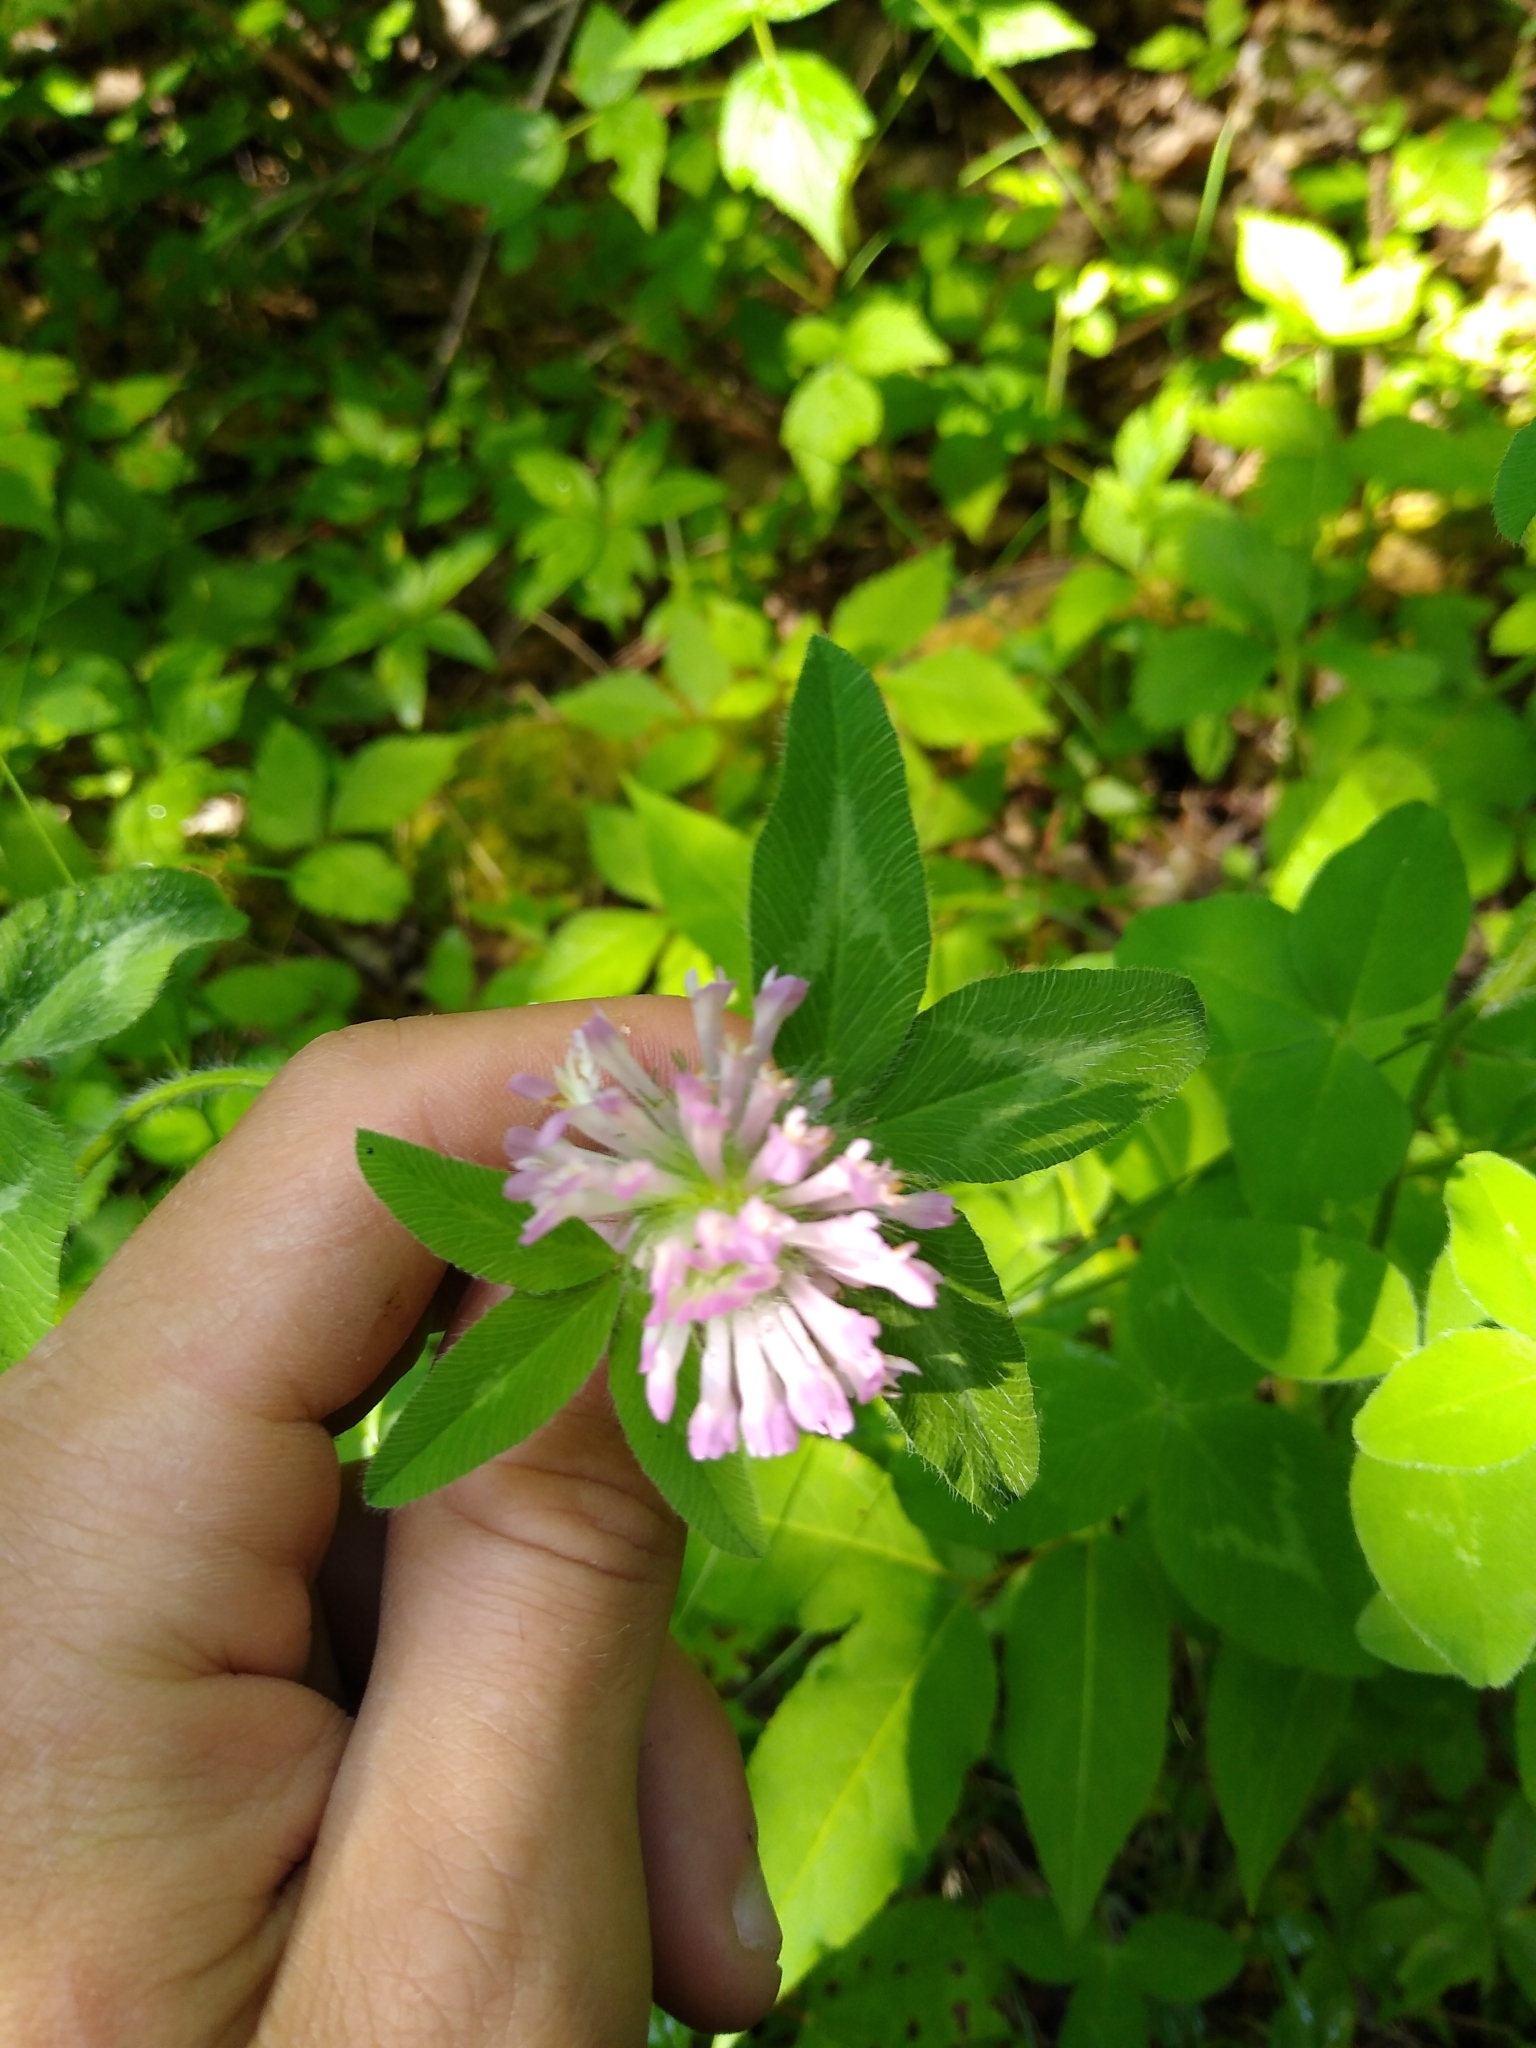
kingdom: Plantae
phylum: Tracheophyta
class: Magnoliopsida
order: Fabales
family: Fabaceae
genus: Trifolium
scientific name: Trifolium pratense
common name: Red clover
